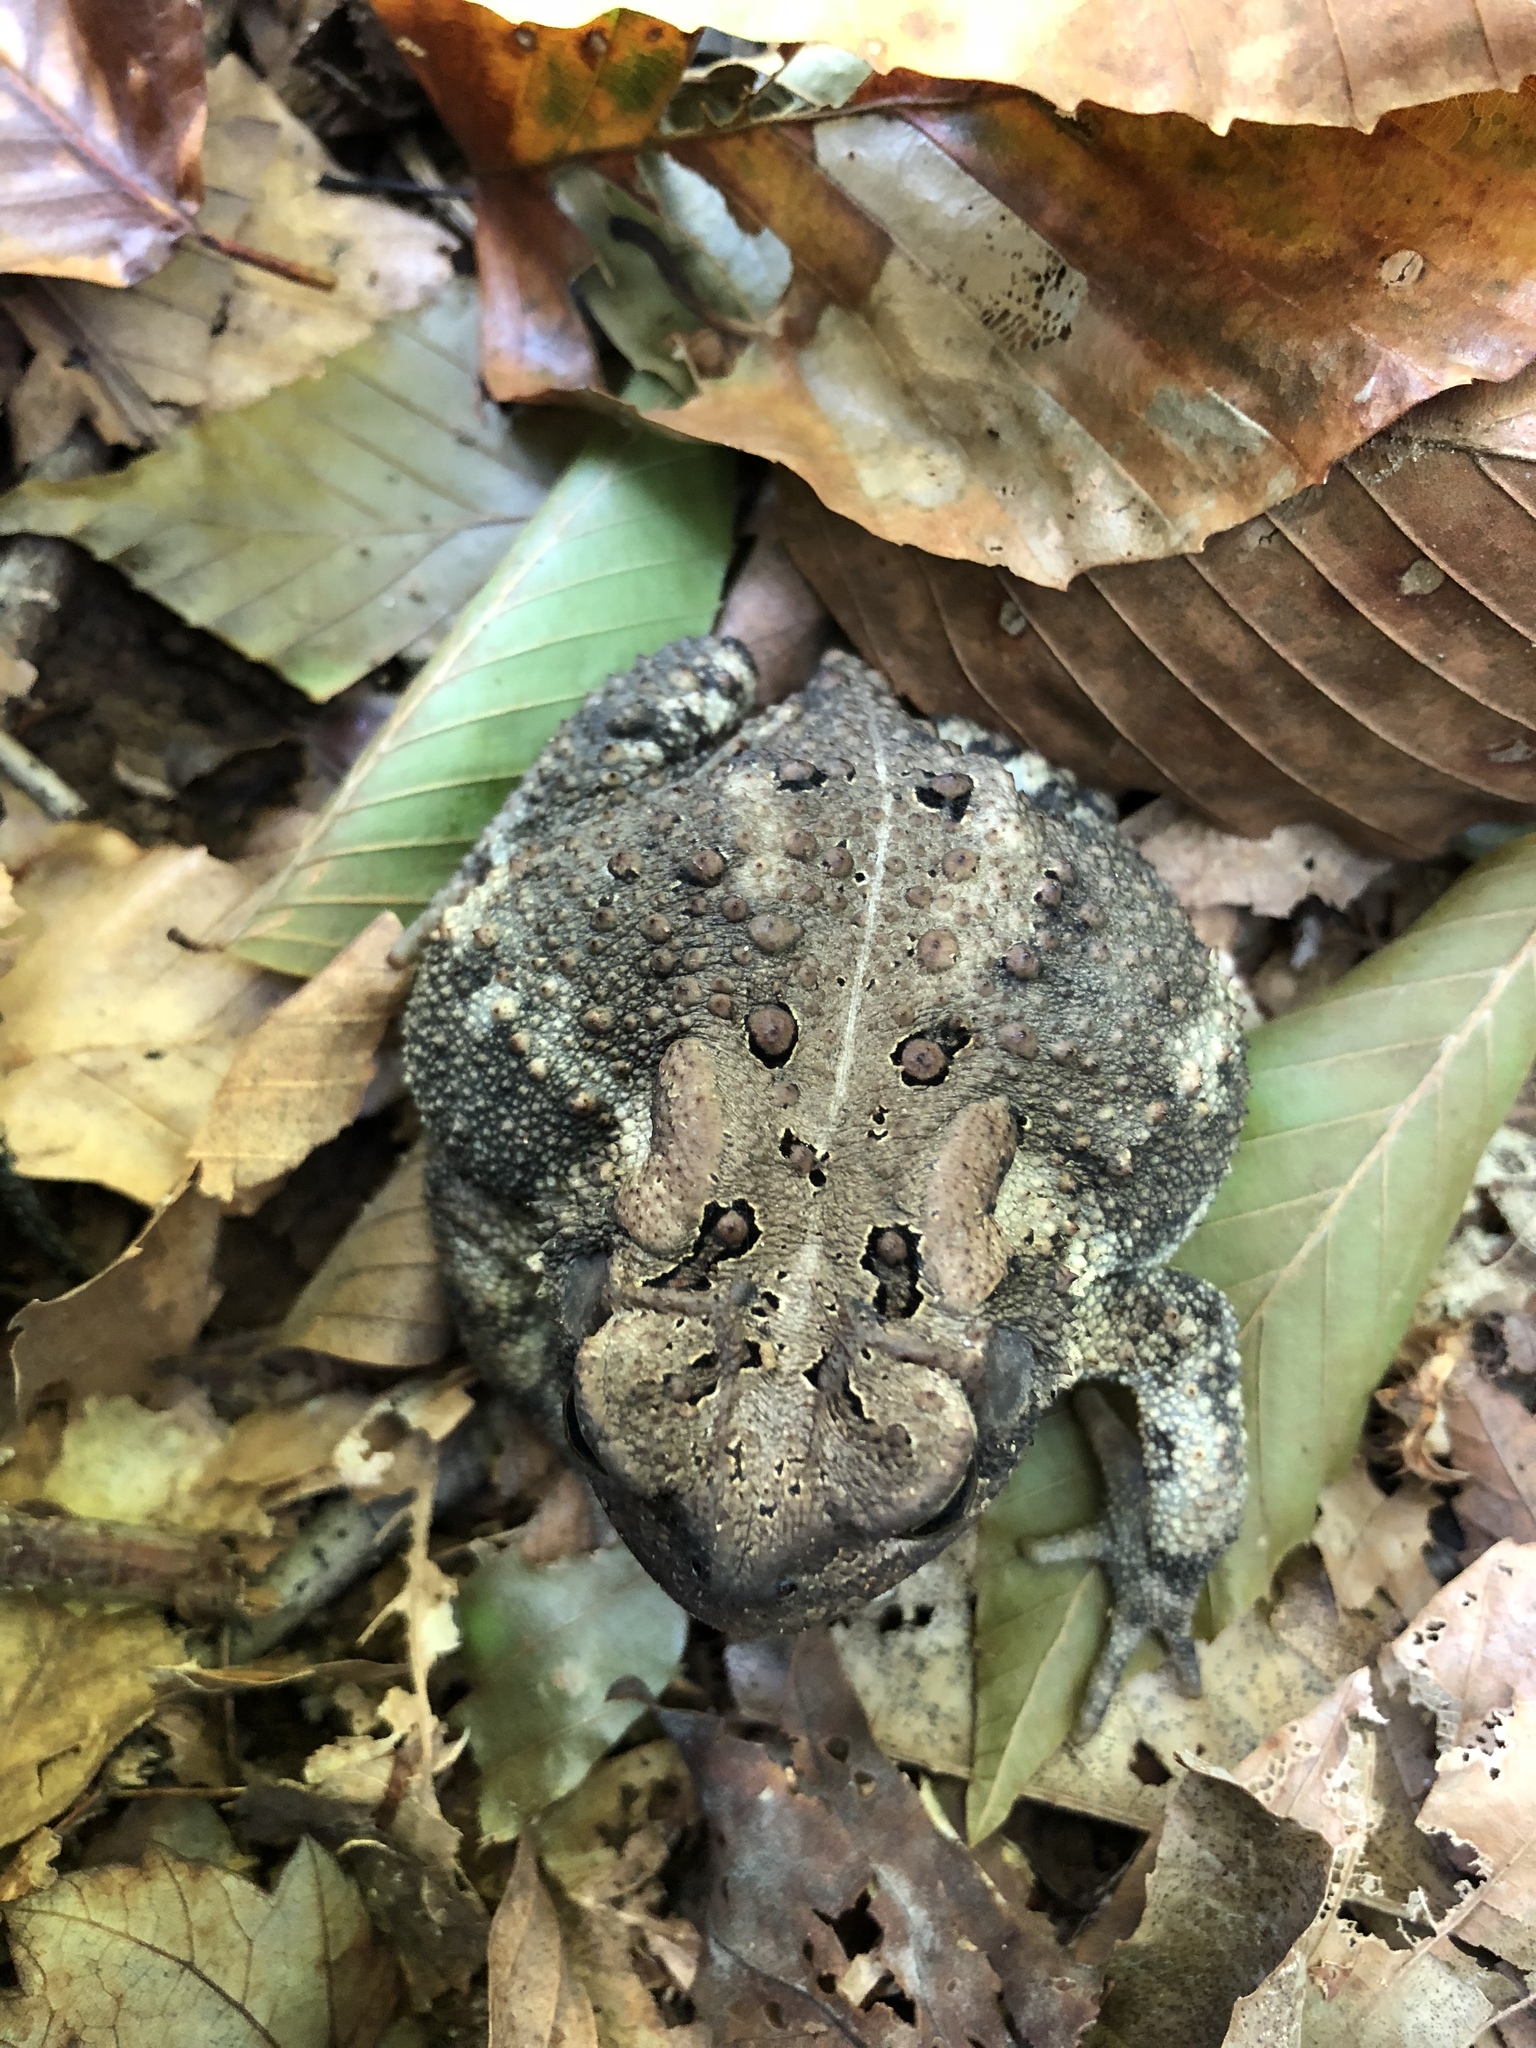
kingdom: Animalia
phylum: Chordata
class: Amphibia
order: Anura
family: Bufonidae
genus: Anaxyrus
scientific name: Anaxyrus americanus
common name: American toad
